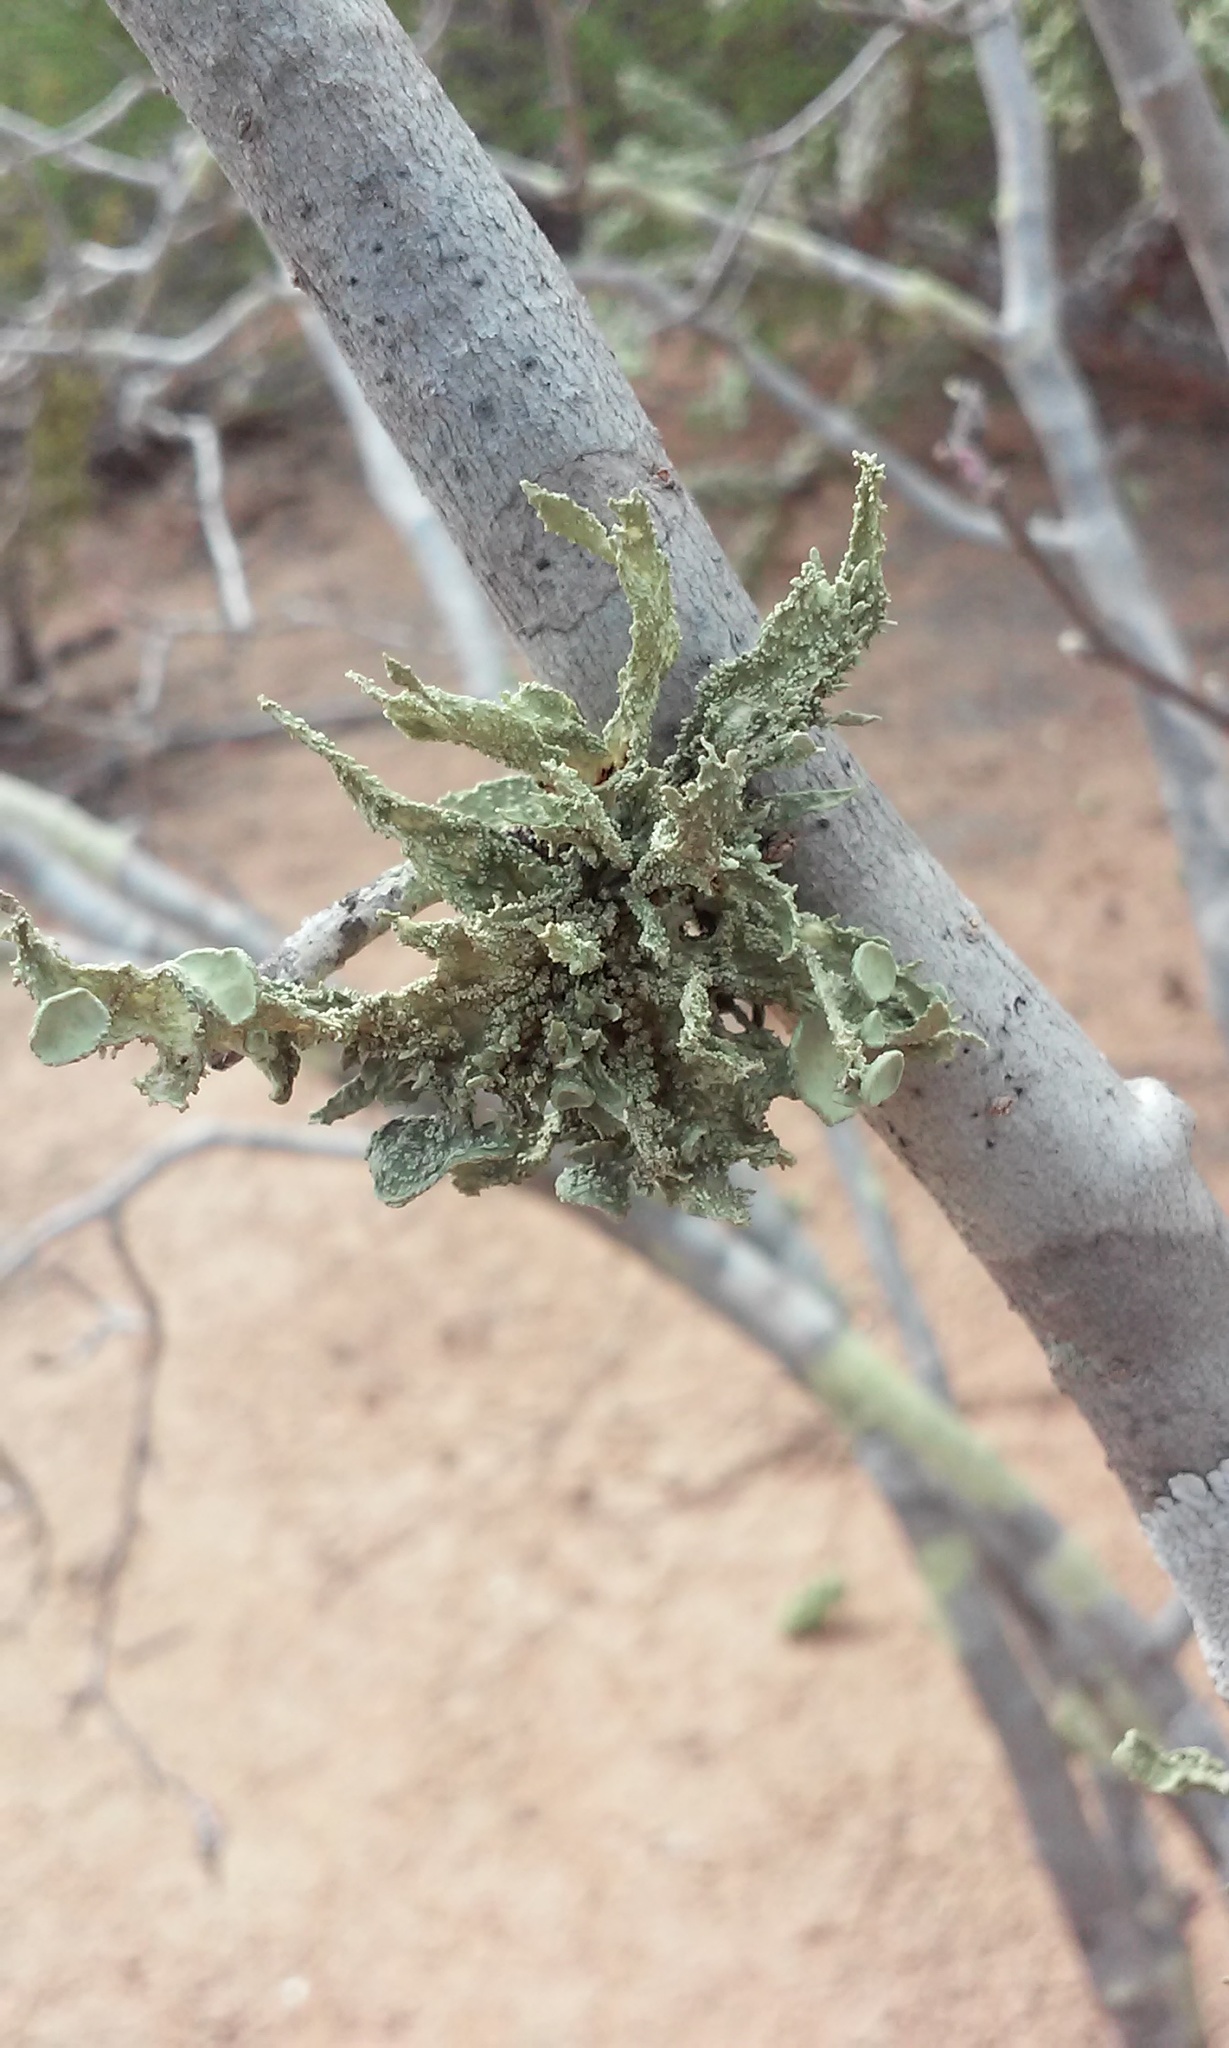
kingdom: Fungi
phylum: Ascomycota
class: Lecanoromycetes
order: Lecanorales
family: Ramalinaceae
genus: Ramalina
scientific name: Ramalina complanata
